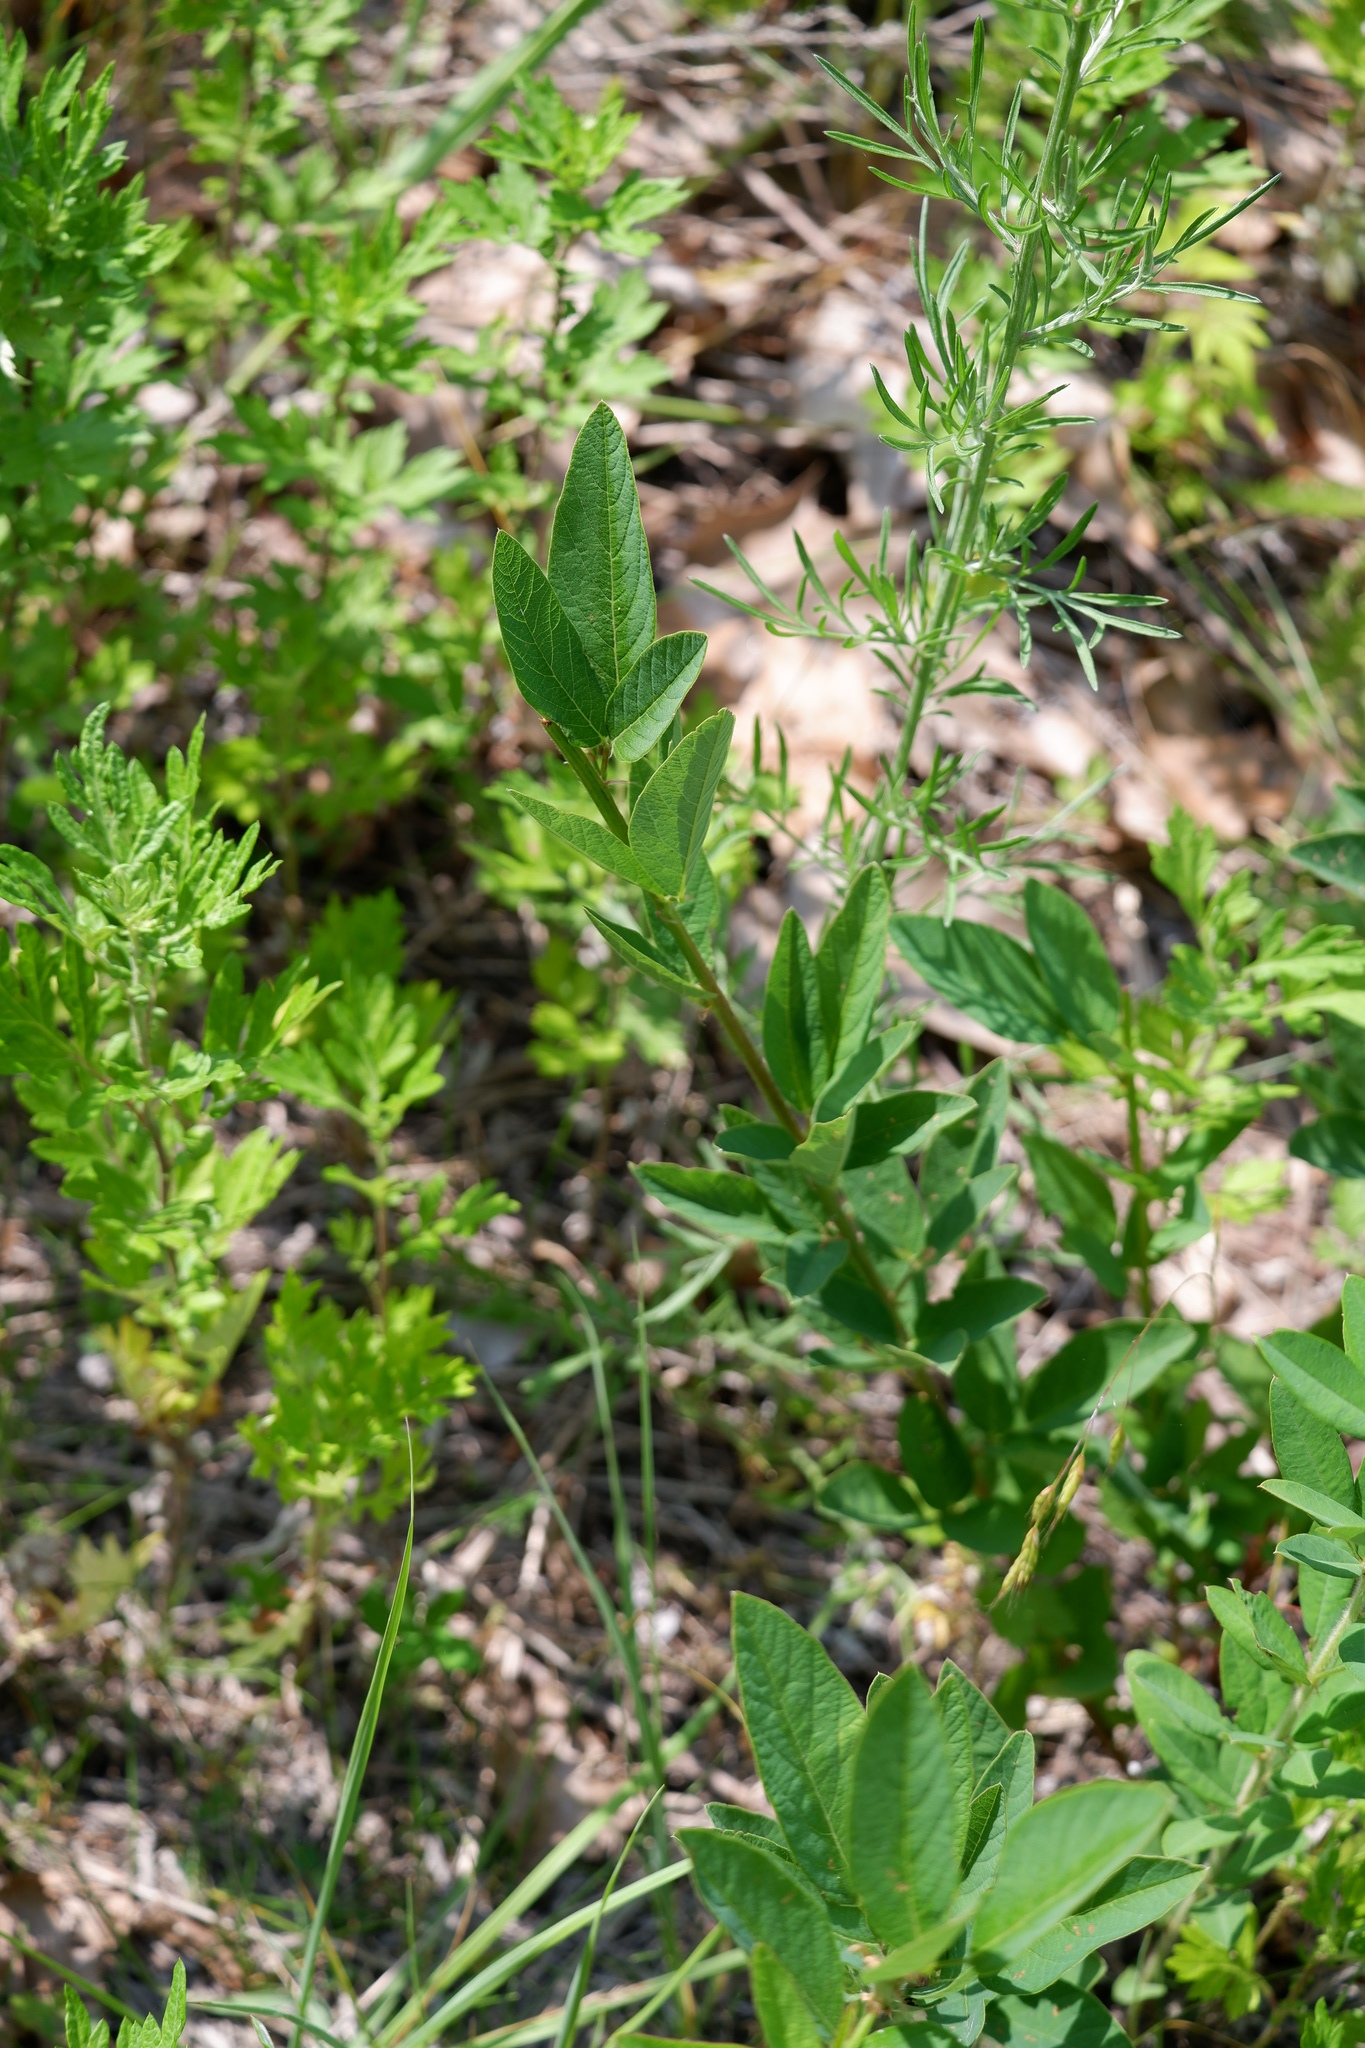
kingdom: Plantae
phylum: Tracheophyta
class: Magnoliopsida
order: Fabales
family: Fabaceae
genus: Desmodium
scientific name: Desmodium canadense
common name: Canada tick-trefoil
